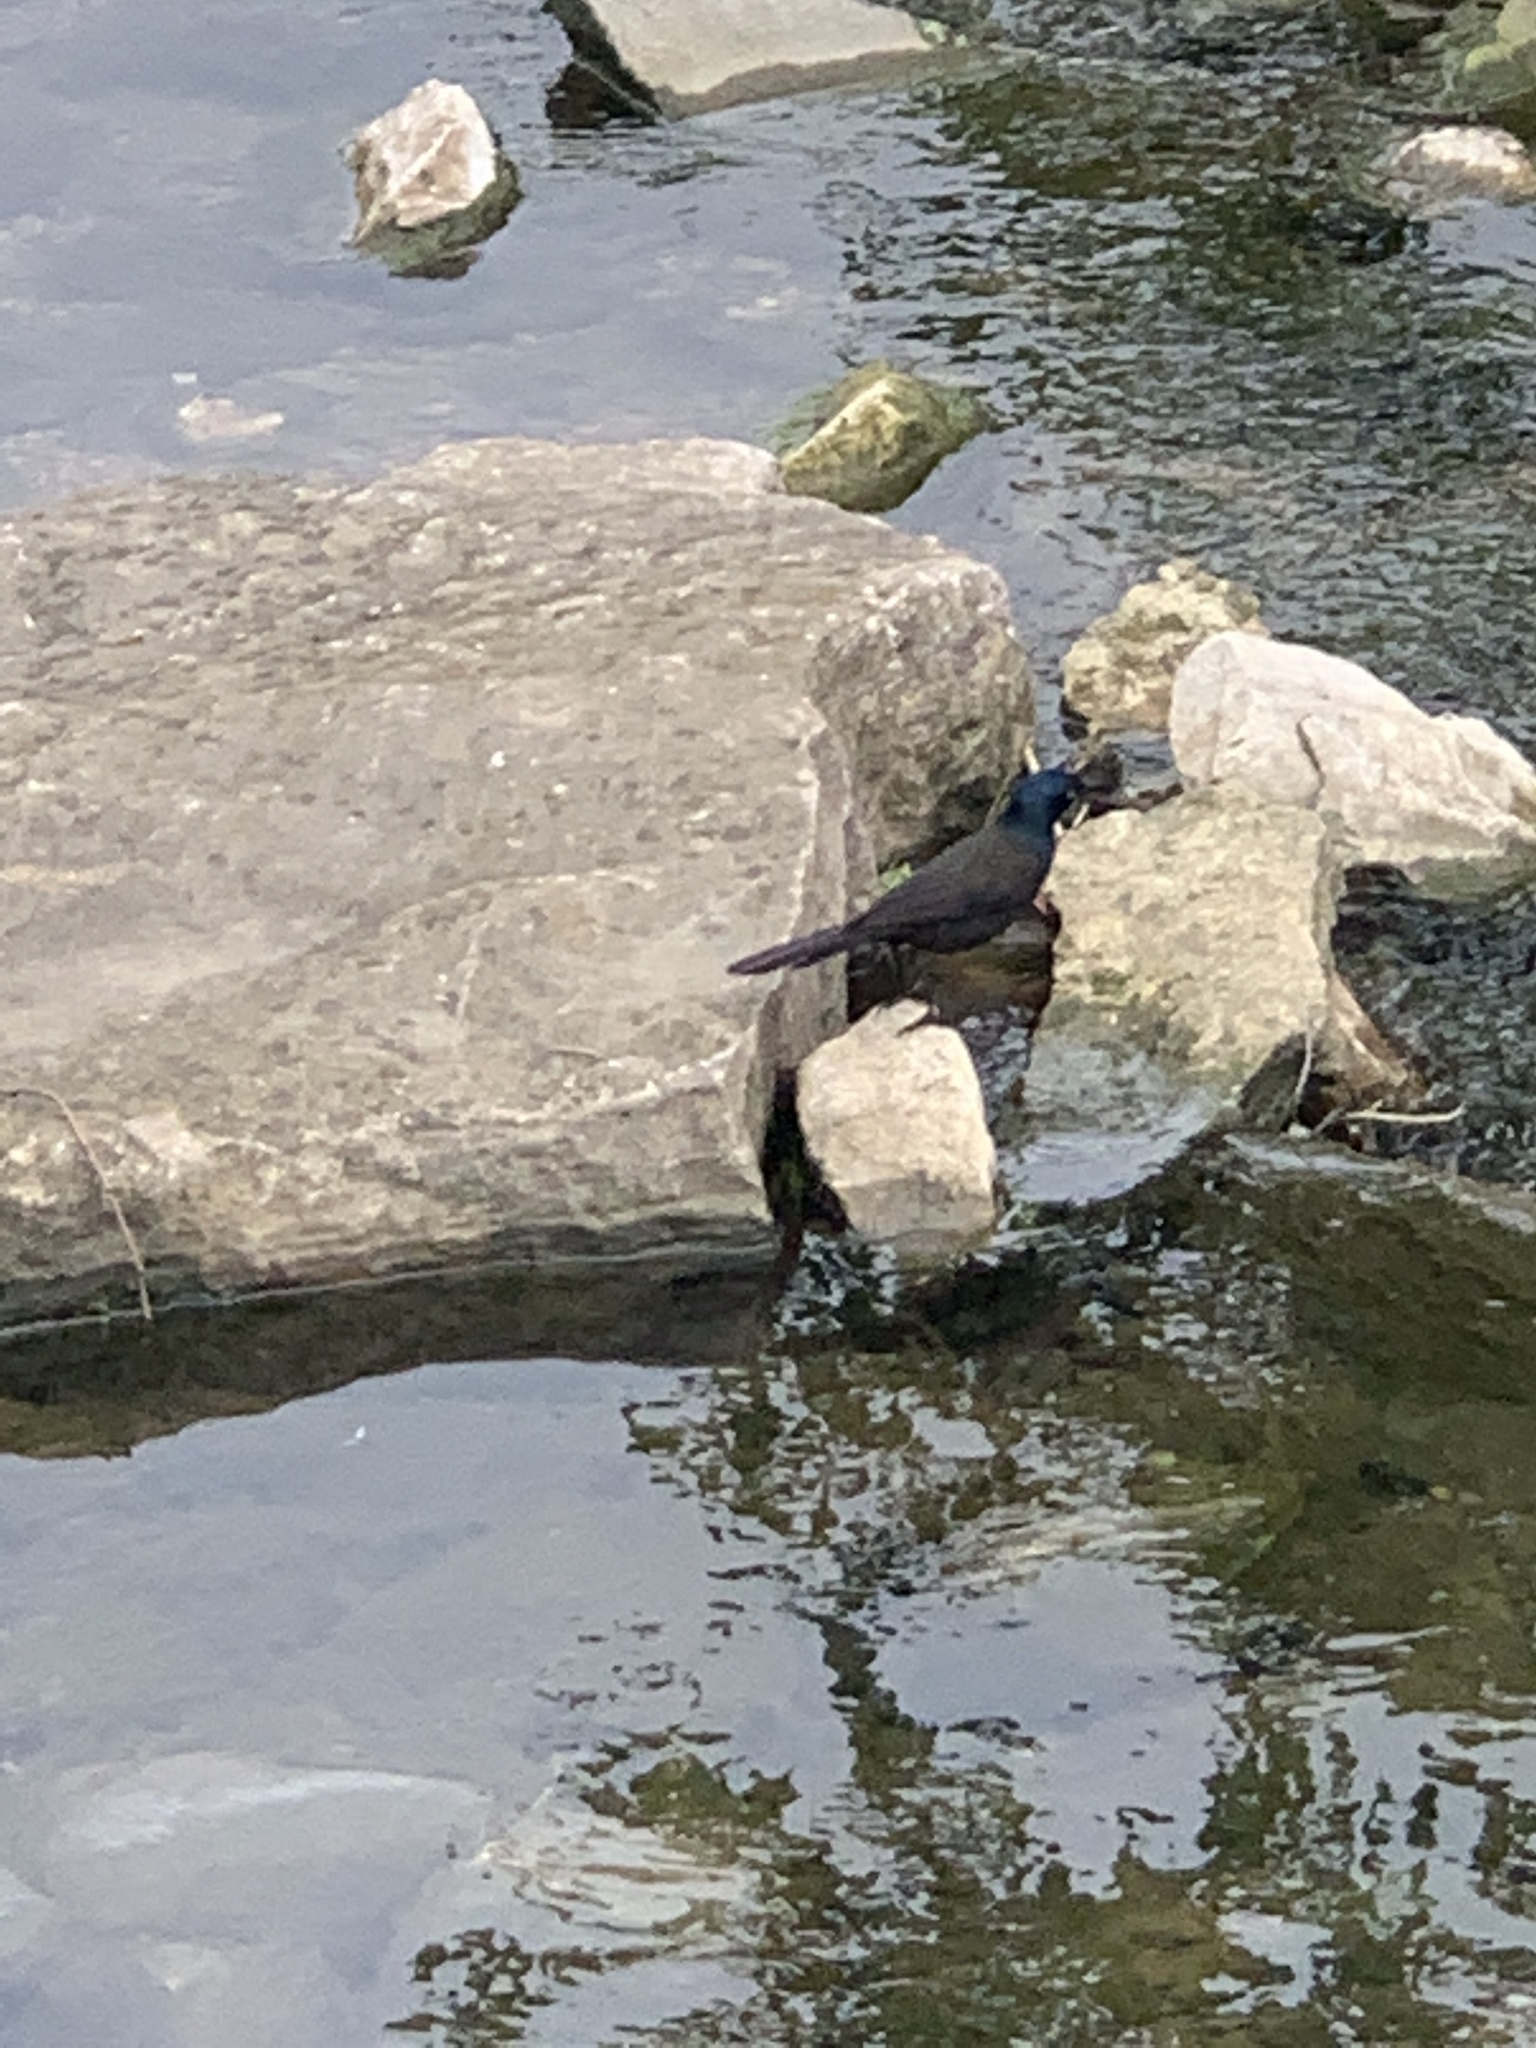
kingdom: Animalia
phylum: Chordata
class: Aves
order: Passeriformes
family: Icteridae
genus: Quiscalus
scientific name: Quiscalus quiscula
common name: Common grackle
